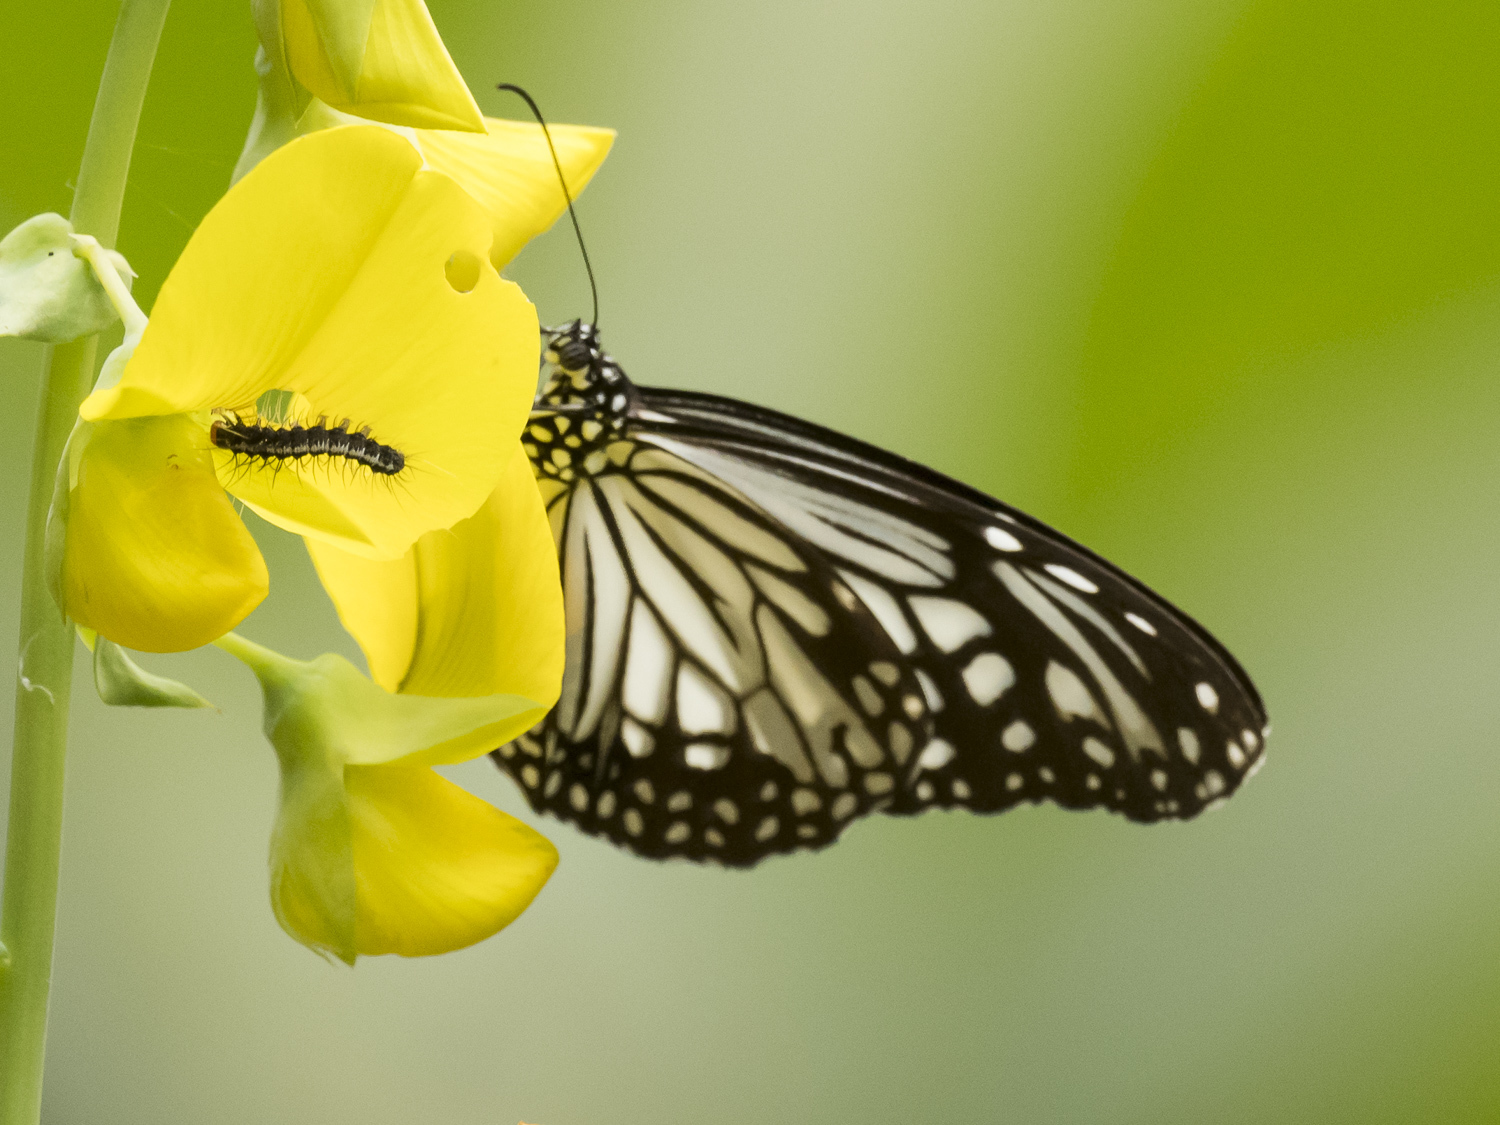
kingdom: Animalia
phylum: Arthropoda
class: Insecta
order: Lepidoptera
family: Nymphalidae
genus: Parantica
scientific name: Parantica aglea
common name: Glassy tiger
